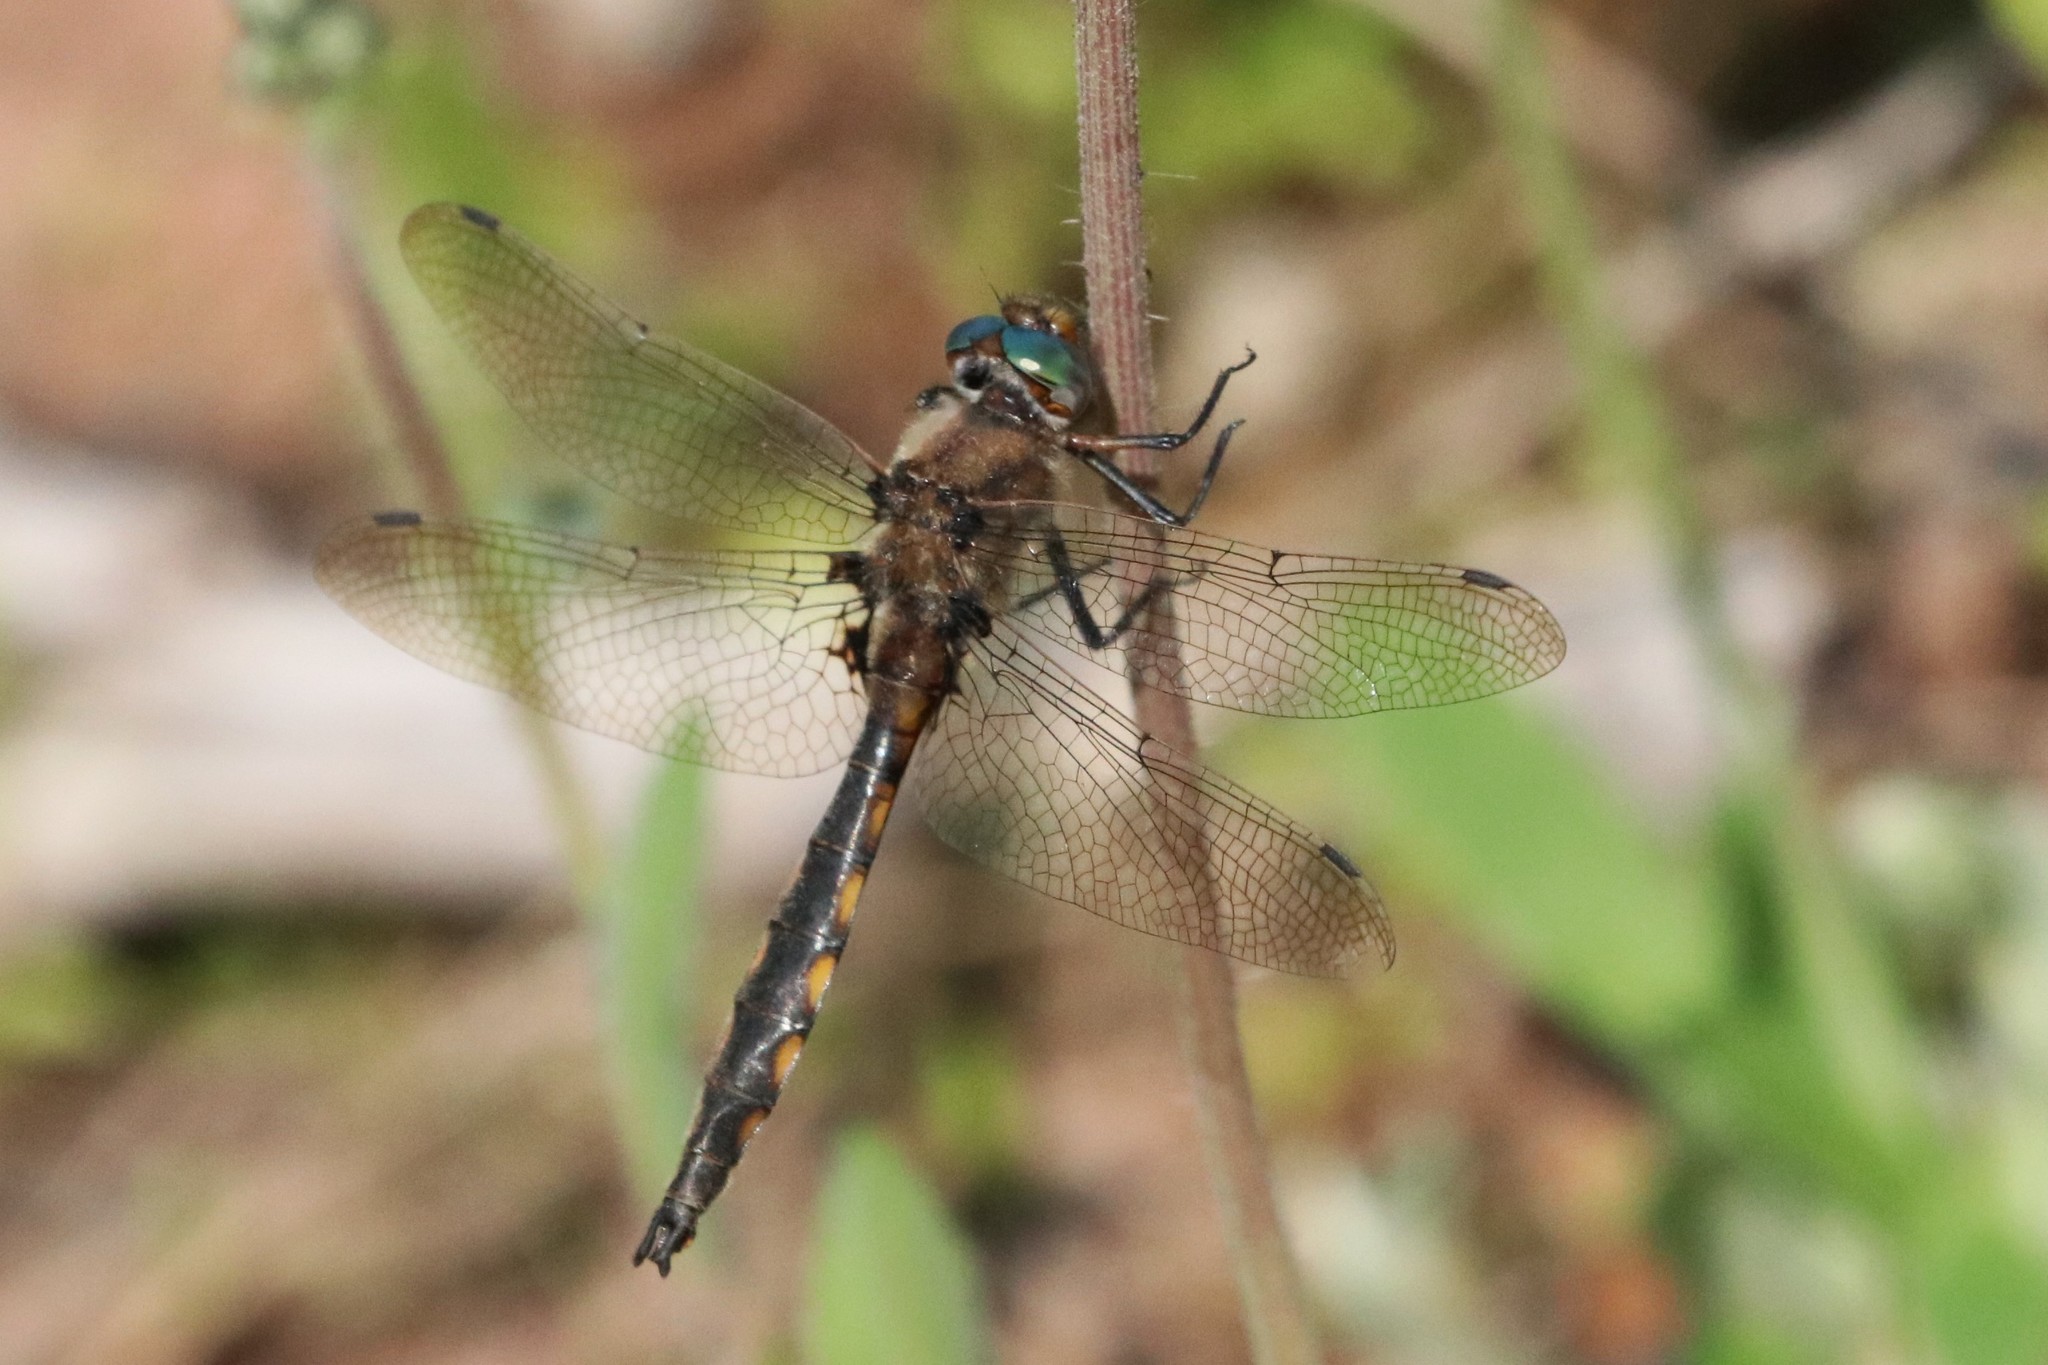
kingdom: Animalia
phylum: Arthropoda
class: Insecta
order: Odonata
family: Corduliidae
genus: Epitheca
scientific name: Epitheca canis
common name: Beaverpond baskettail
